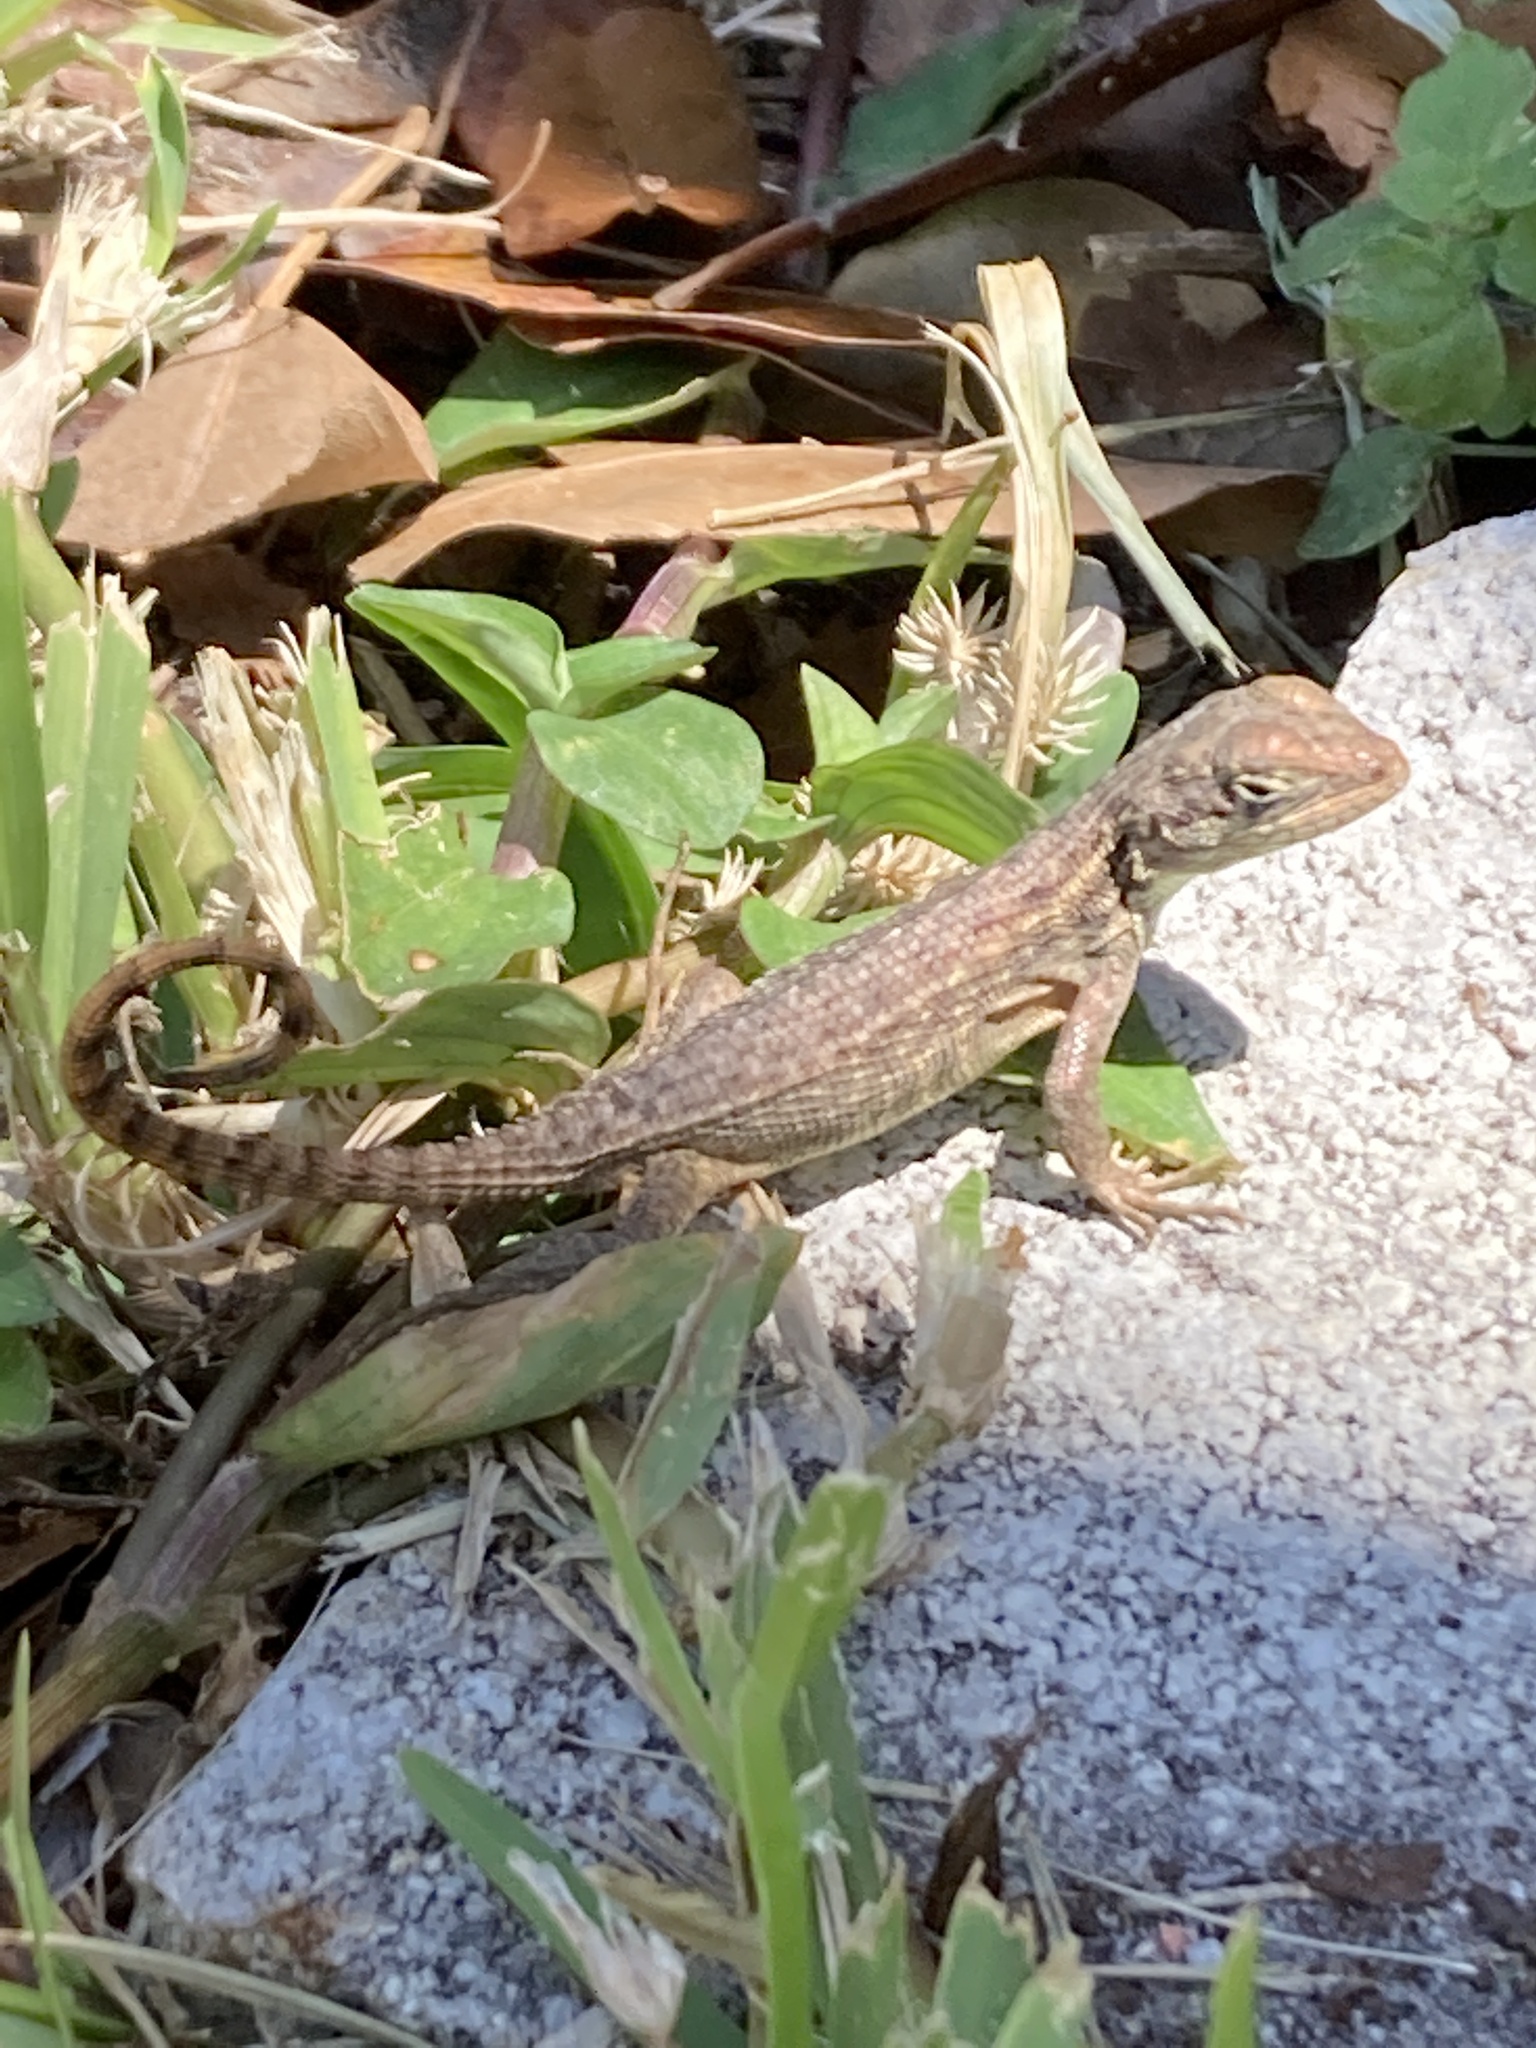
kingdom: Animalia
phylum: Chordata
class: Squamata
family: Leiocephalidae
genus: Leiocephalus
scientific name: Leiocephalus carinatus
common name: Northern curly-tailed lizard
